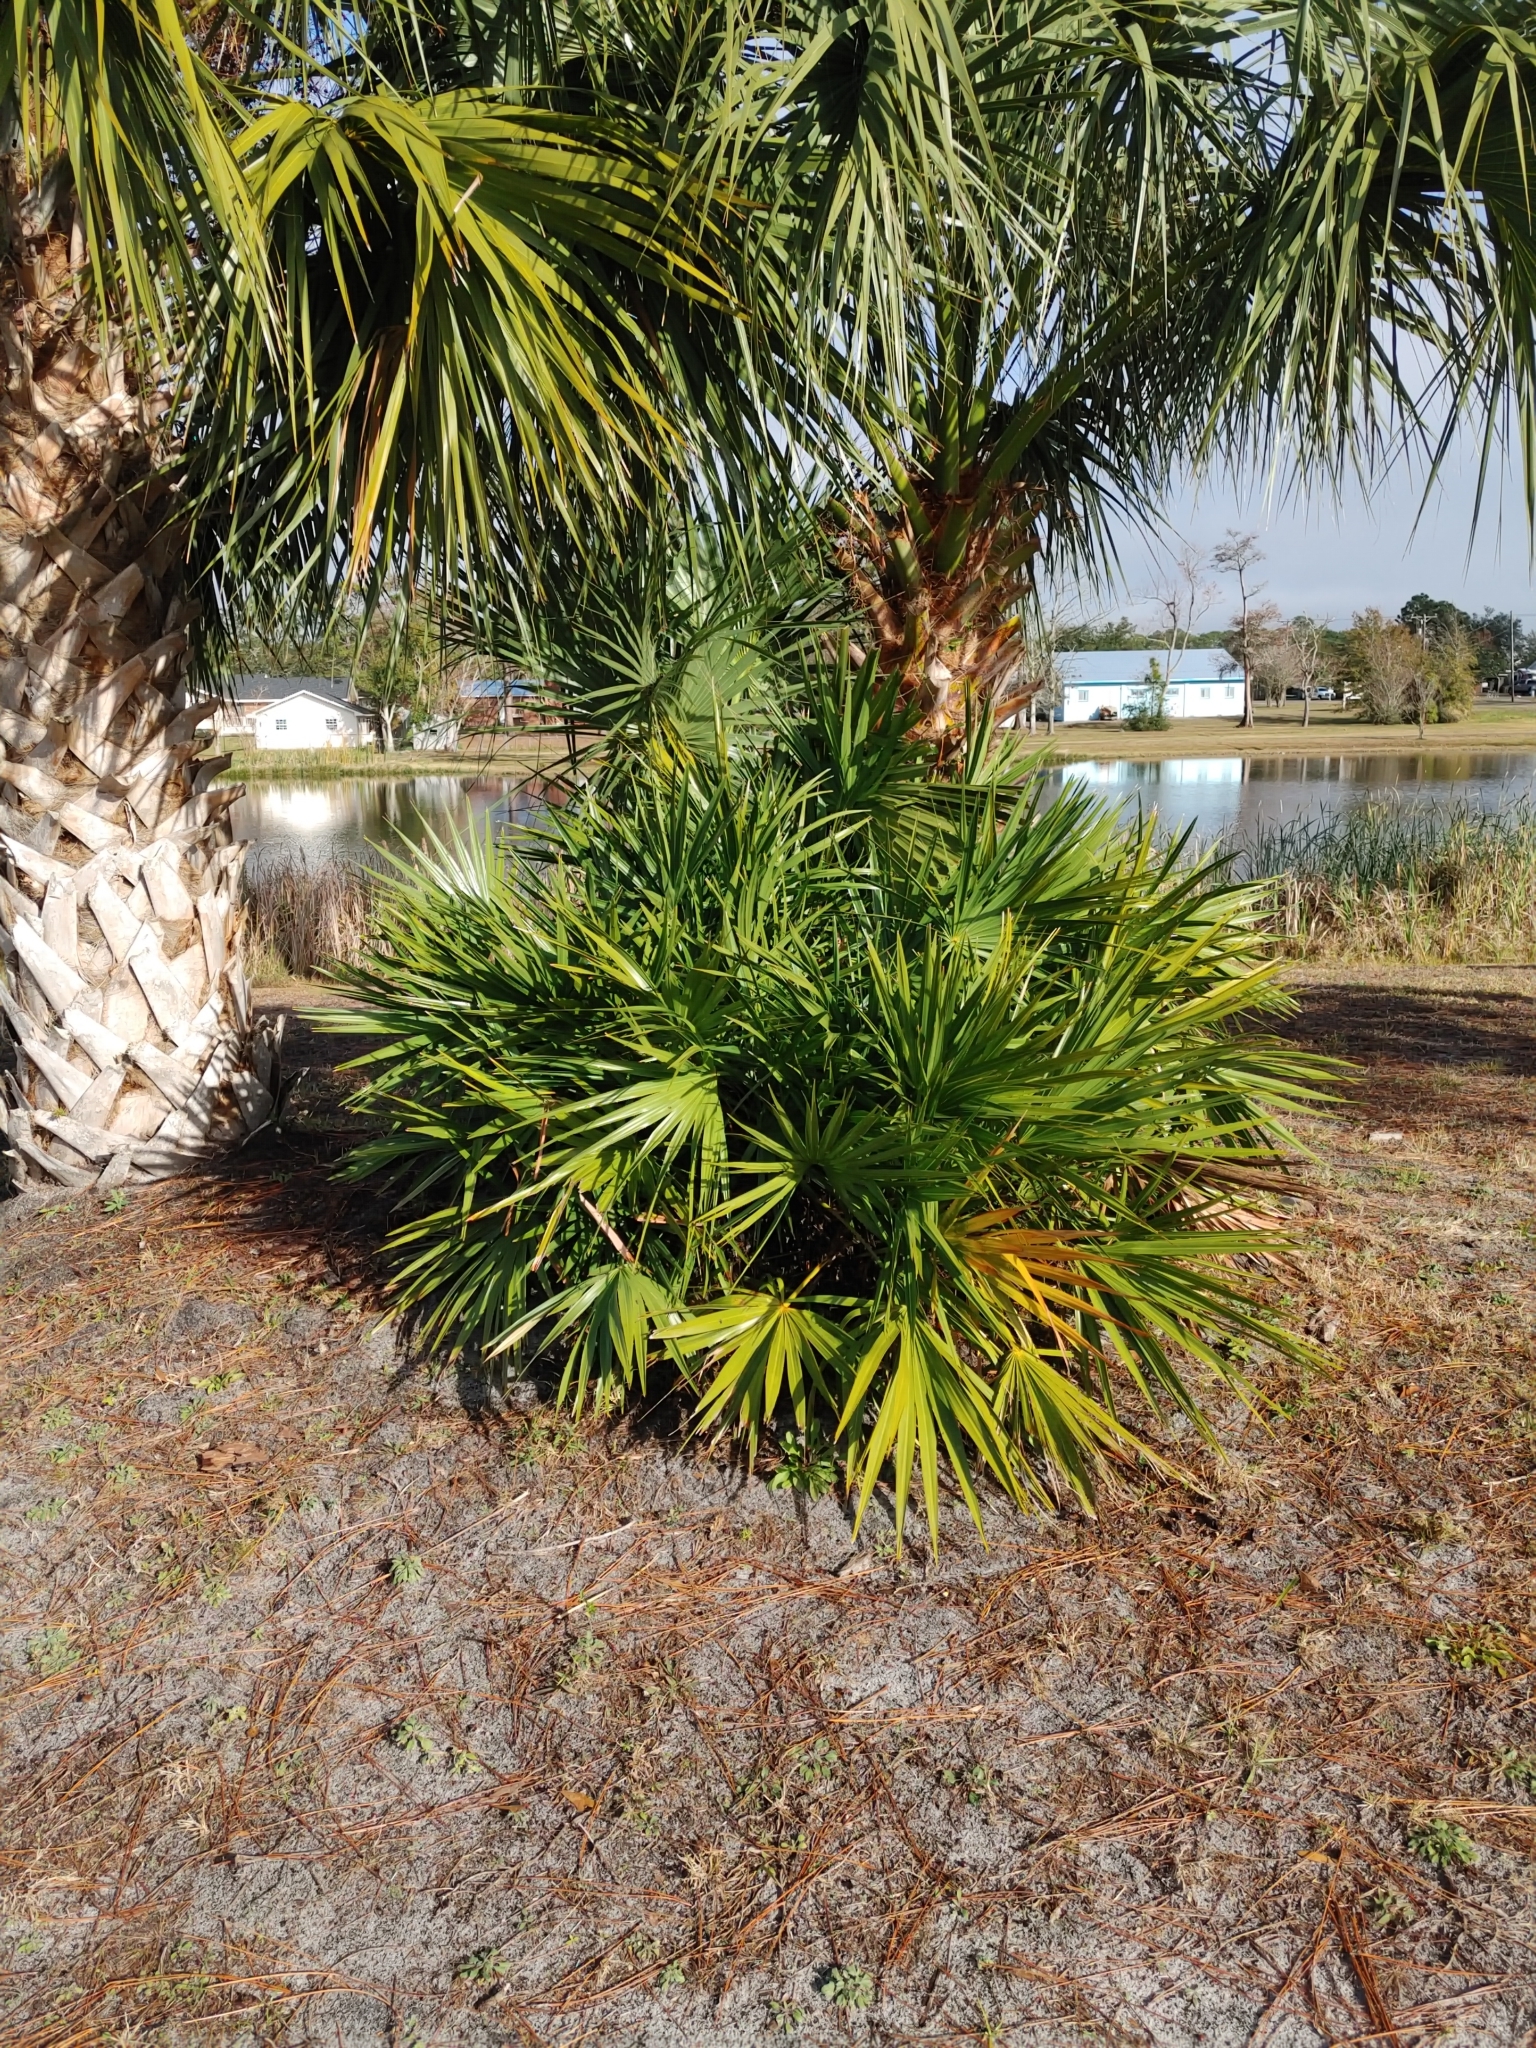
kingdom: Plantae
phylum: Tracheophyta
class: Liliopsida
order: Arecales
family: Arecaceae
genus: Serenoa
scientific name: Serenoa repens
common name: Saw-palmetto
